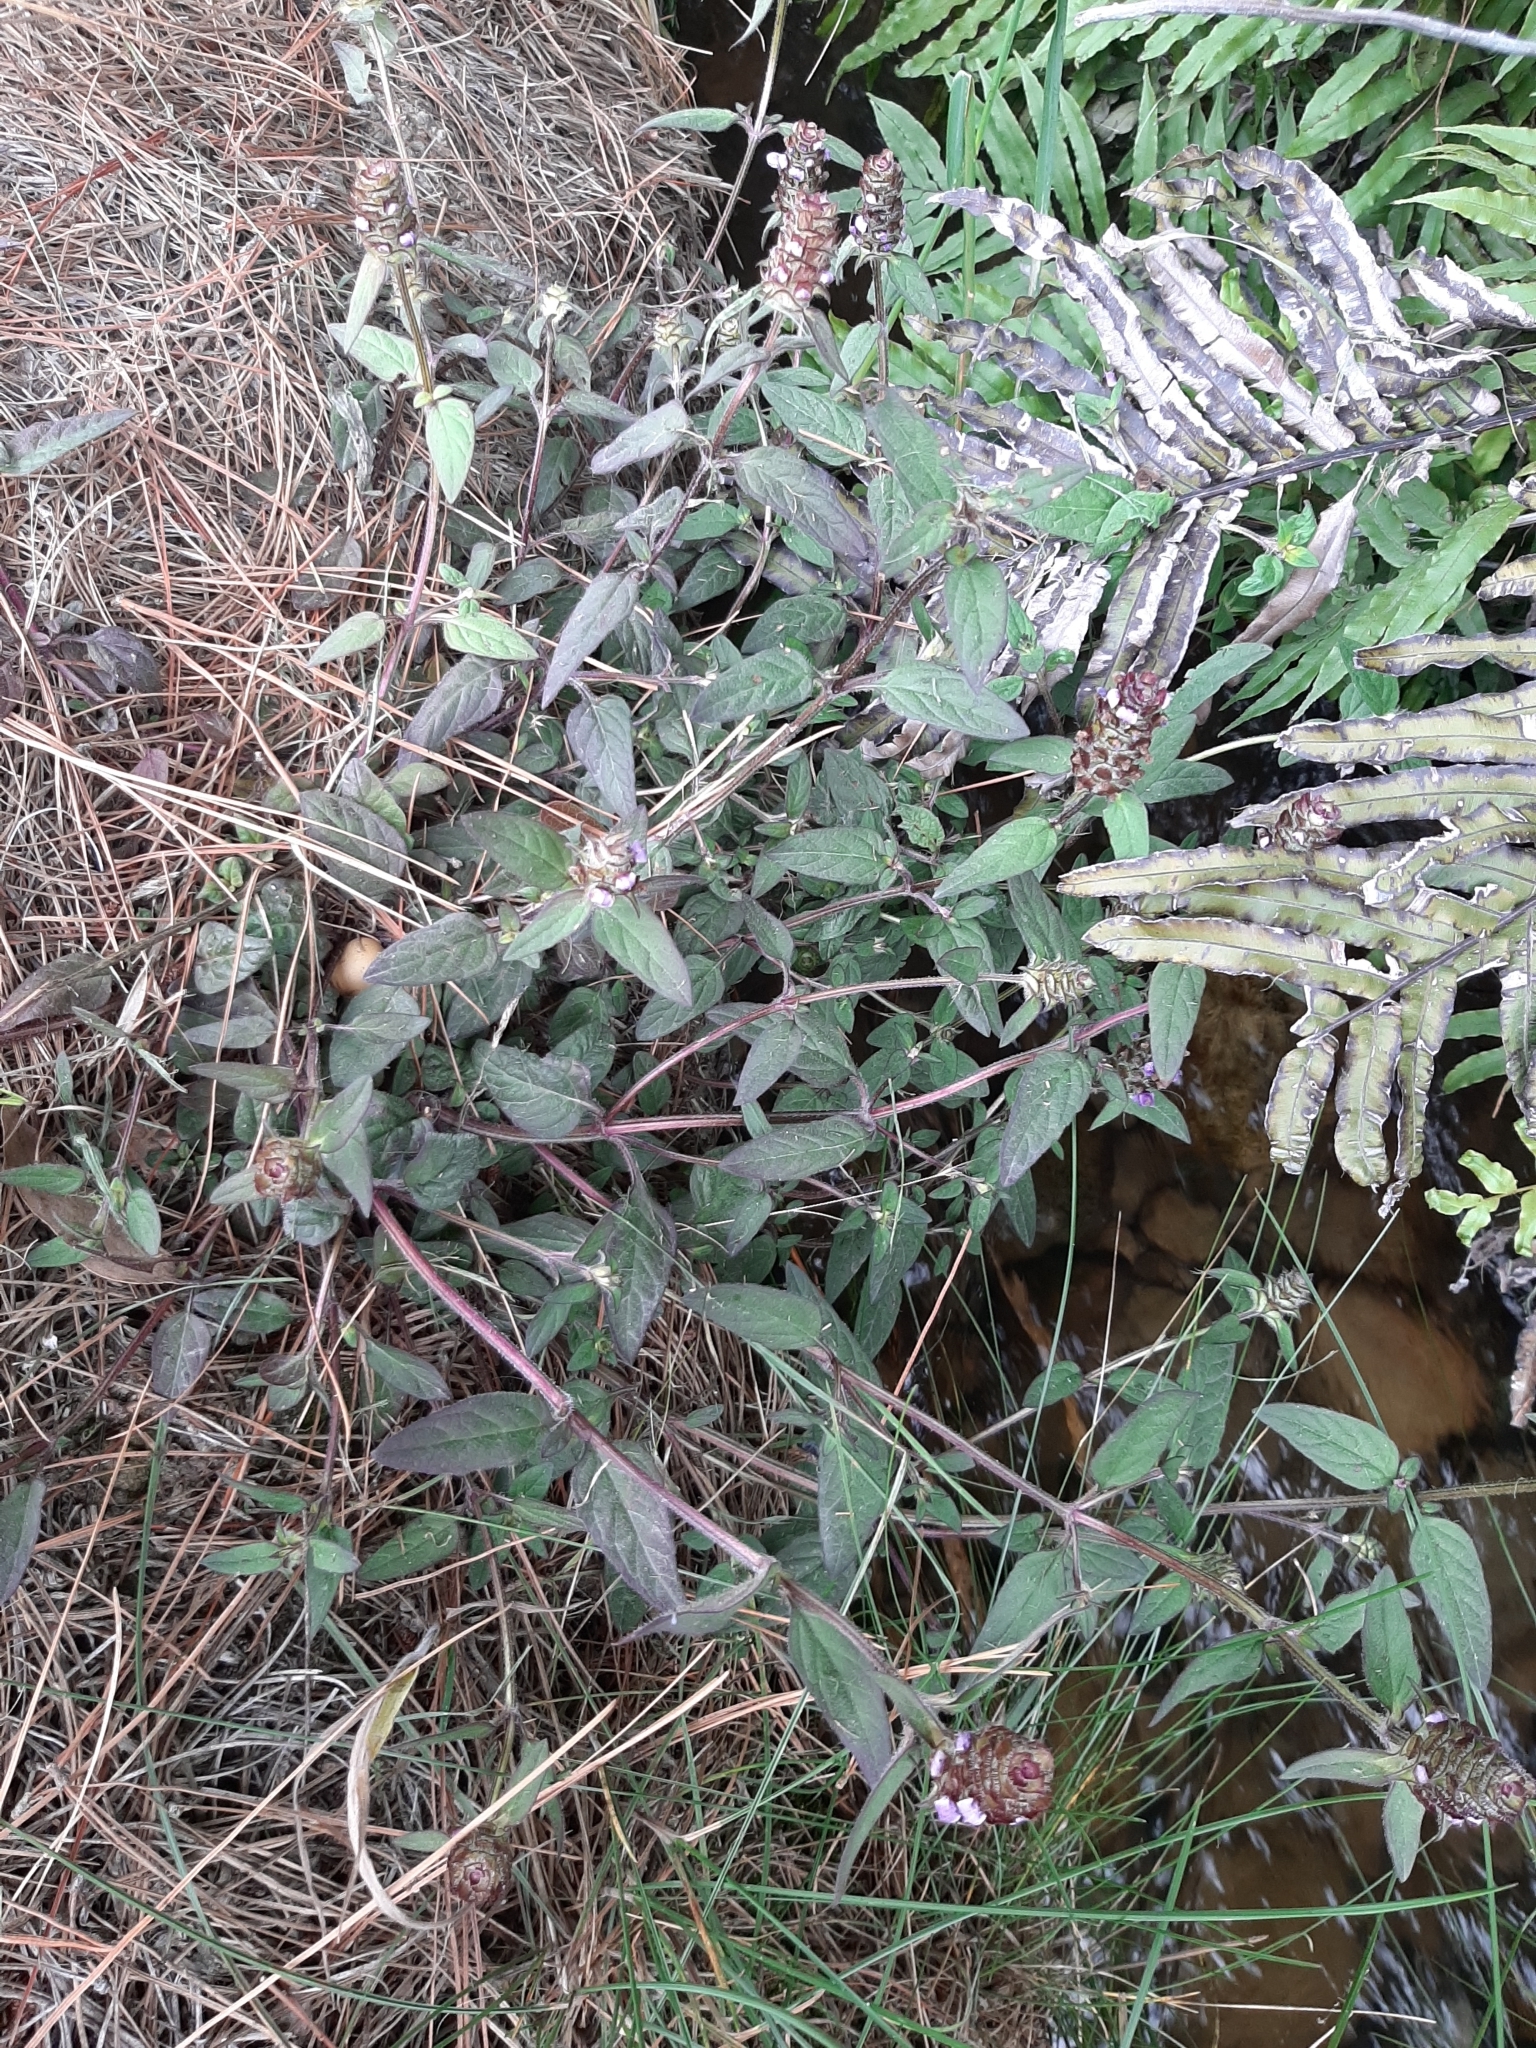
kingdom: Plantae
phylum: Tracheophyta
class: Magnoliopsida
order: Lamiales
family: Lamiaceae
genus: Prunella
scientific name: Prunella vulgaris
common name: Heal-all
